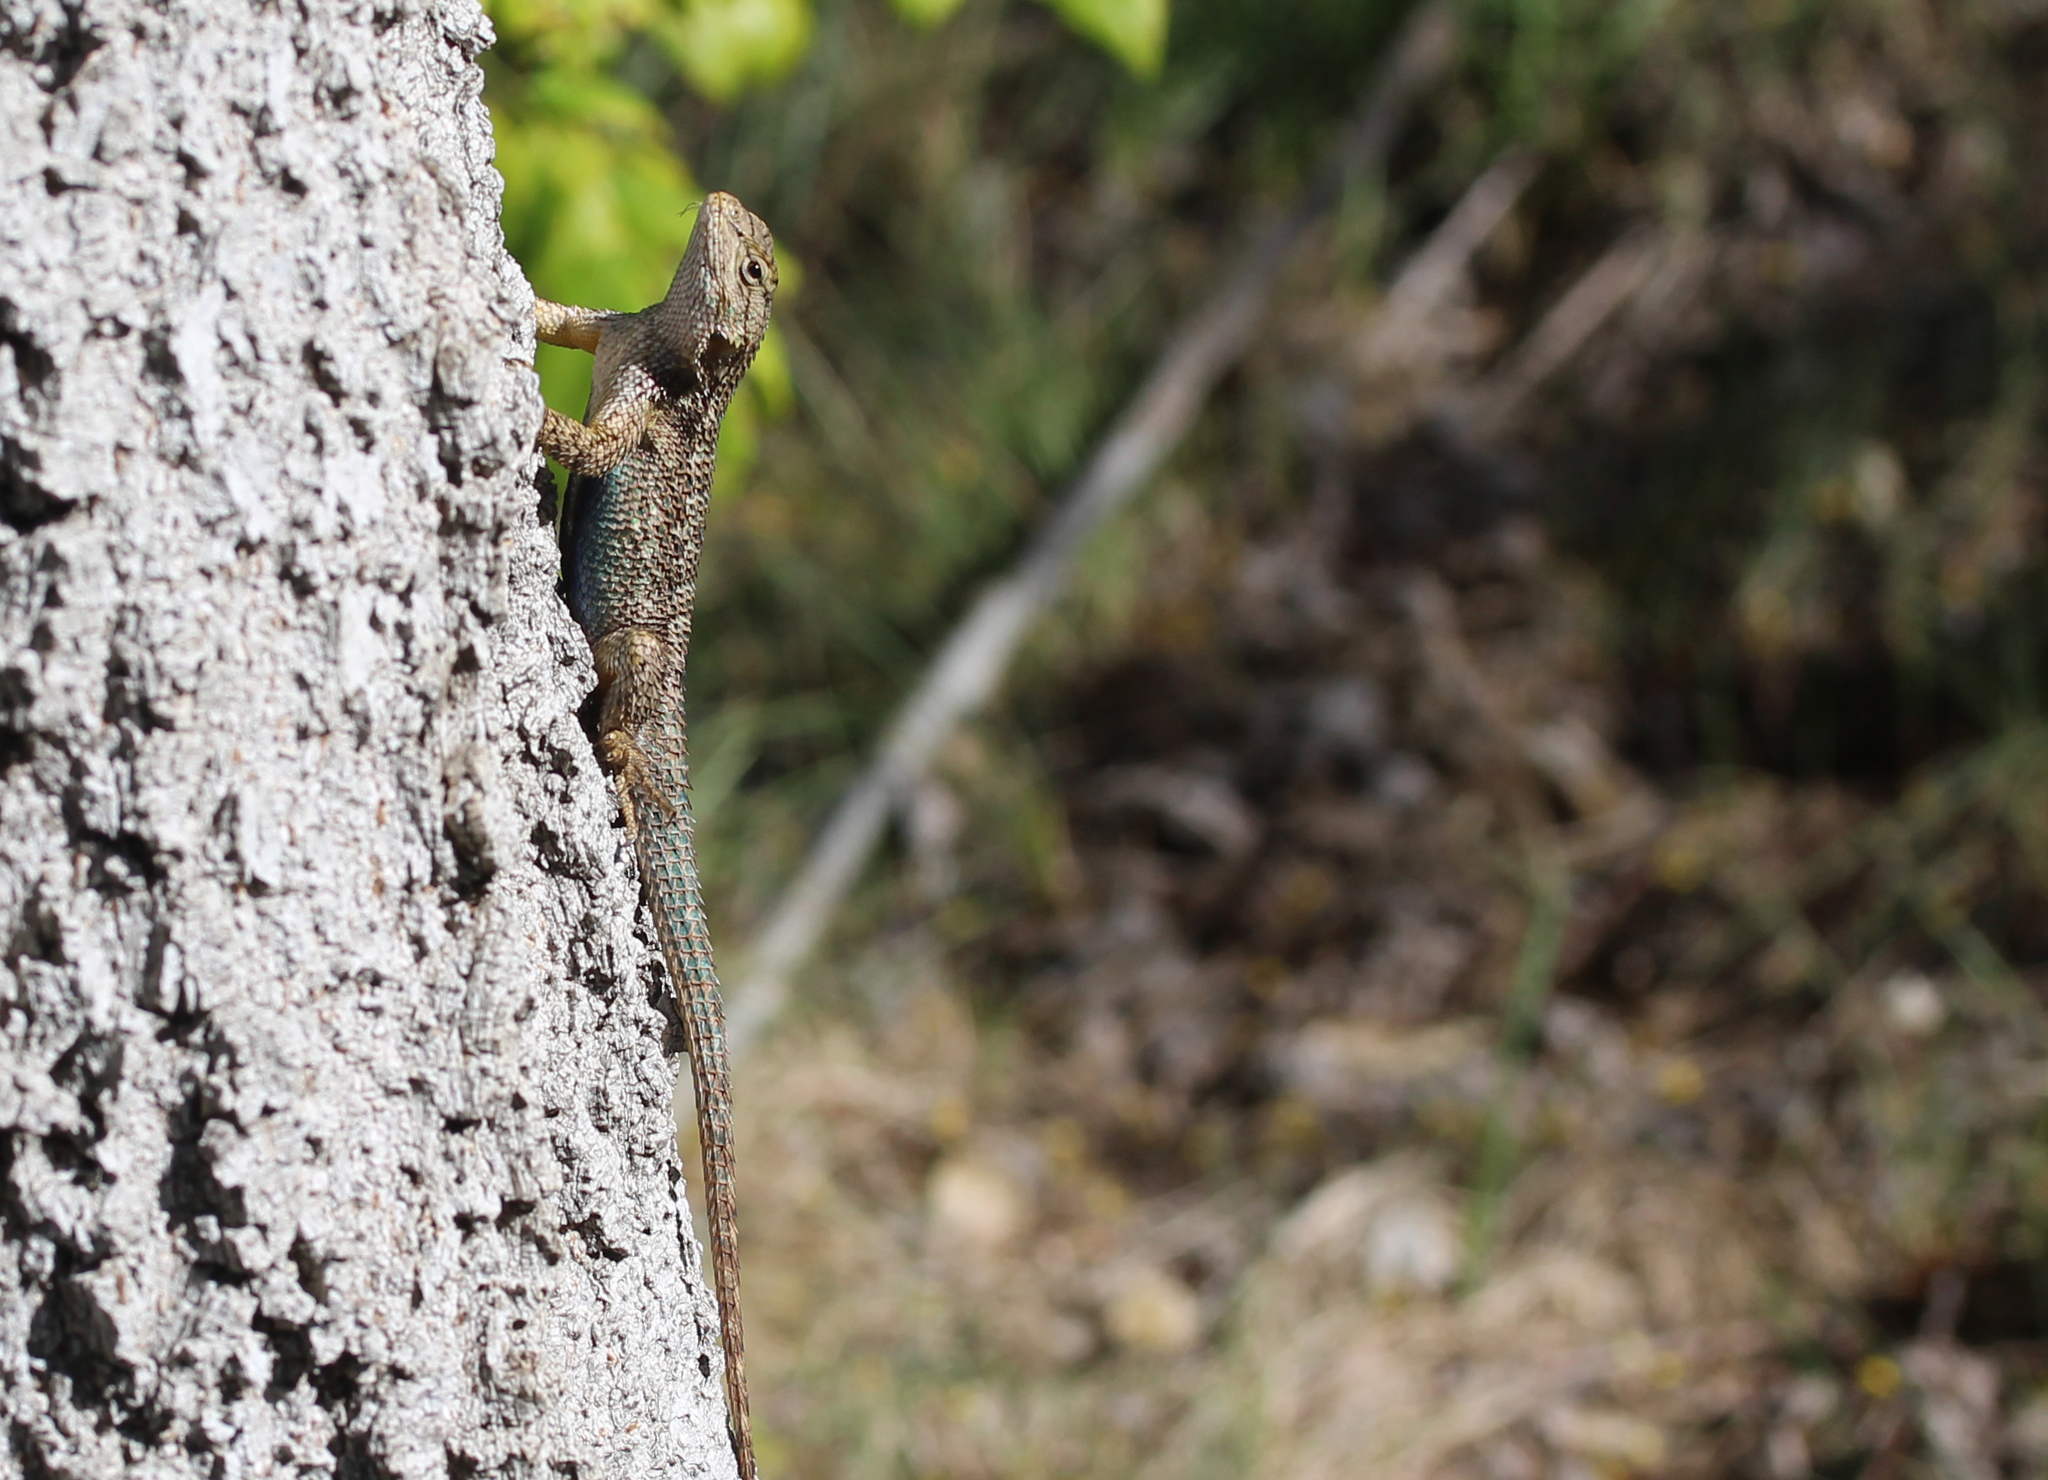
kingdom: Animalia
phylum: Chordata
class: Squamata
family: Phrynosomatidae
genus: Sceloporus
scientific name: Sceloporus occidentalis
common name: Western fence lizard
